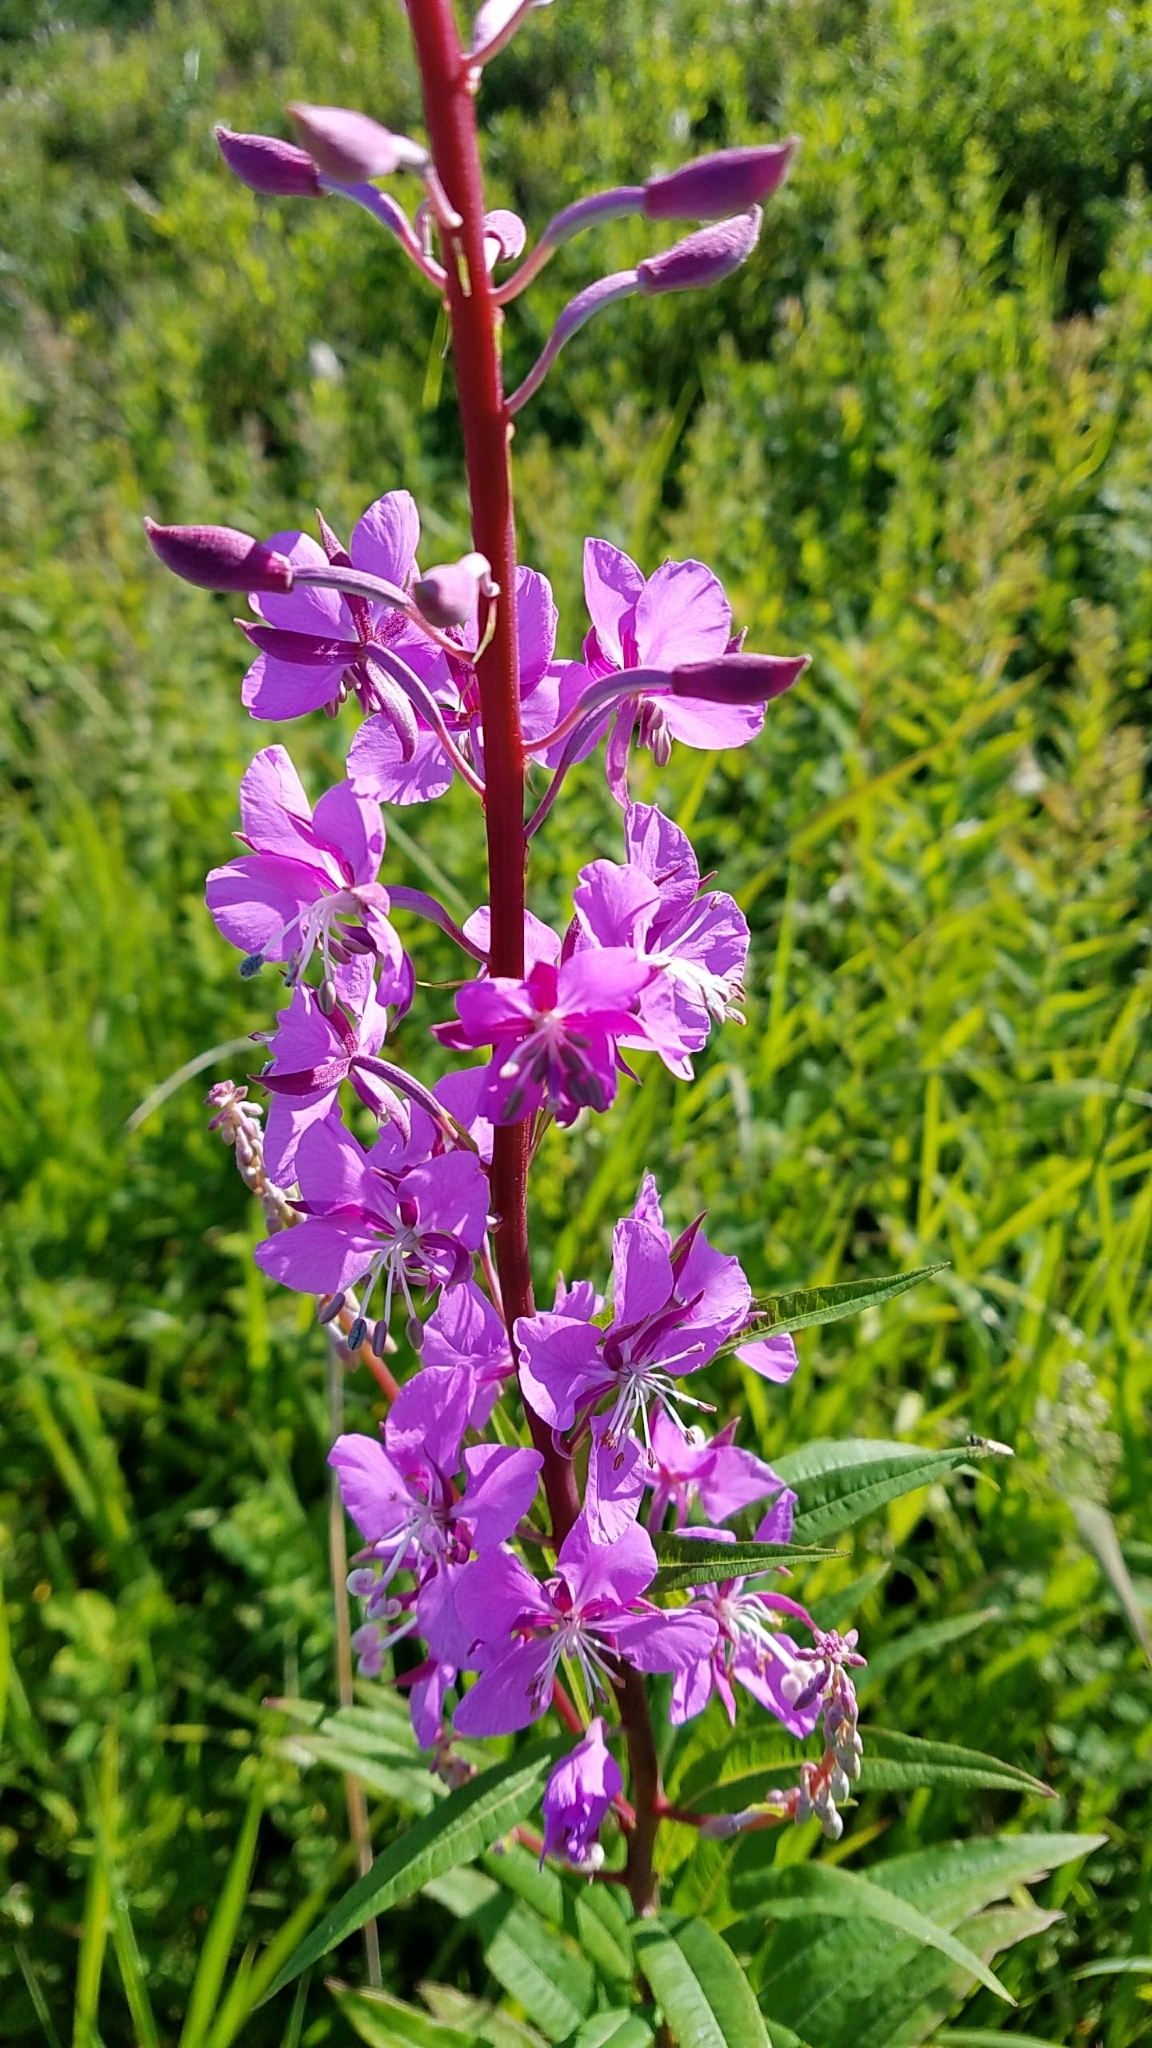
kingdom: Plantae
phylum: Tracheophyta
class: Magnoliopsida
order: Myrtales
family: Onagraceae
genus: Chamaenerion
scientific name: Chamaenerion angustifolium
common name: Fireweed
